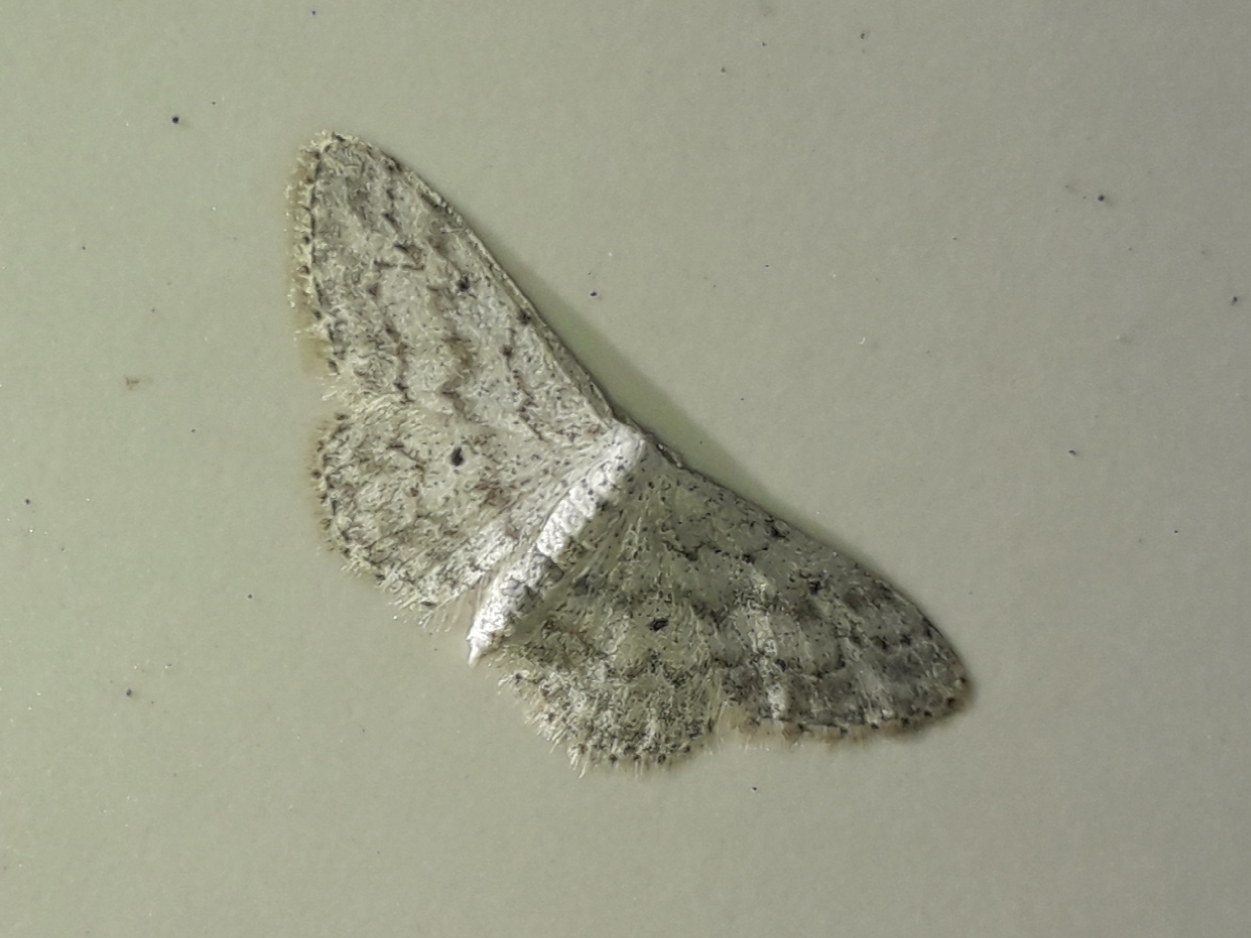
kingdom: Animalia
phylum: Arthropoda
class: Insecta
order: Lepidoptera
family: Geometridae
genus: Idaea
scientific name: Idaea seriata
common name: Small dusty wave
